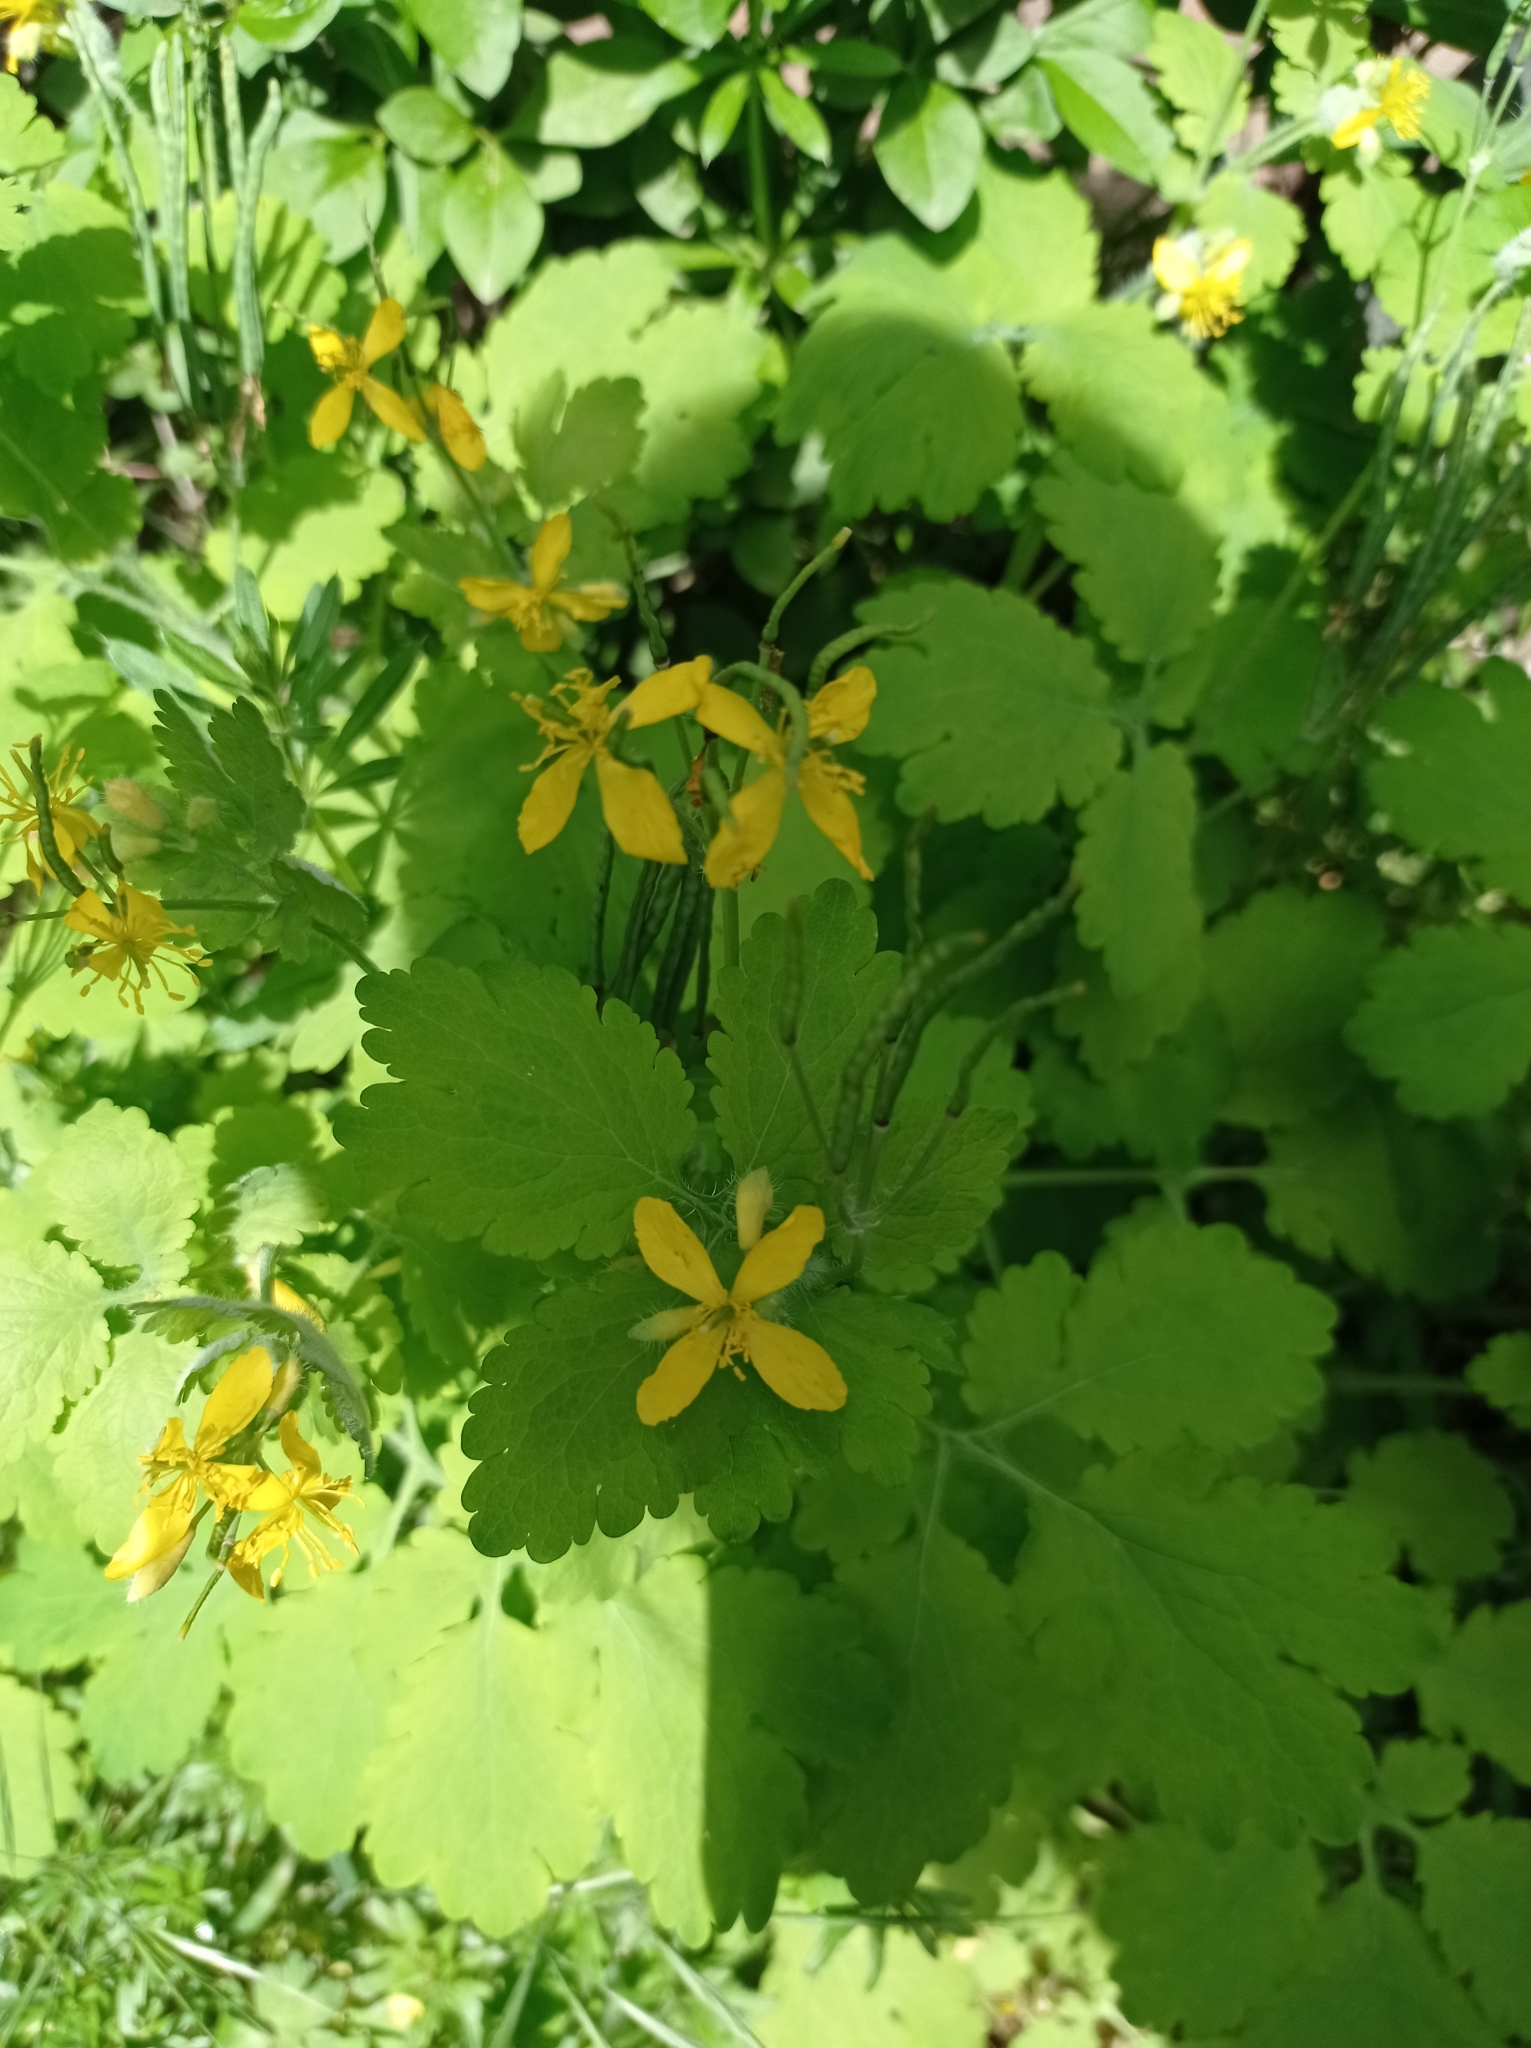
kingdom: Plantae
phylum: Tracheophyta
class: Magnoliopsida
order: Ranunculales
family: Papaveraceae
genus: Chelidonium
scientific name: Chelidonium majus
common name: Greater celandine
